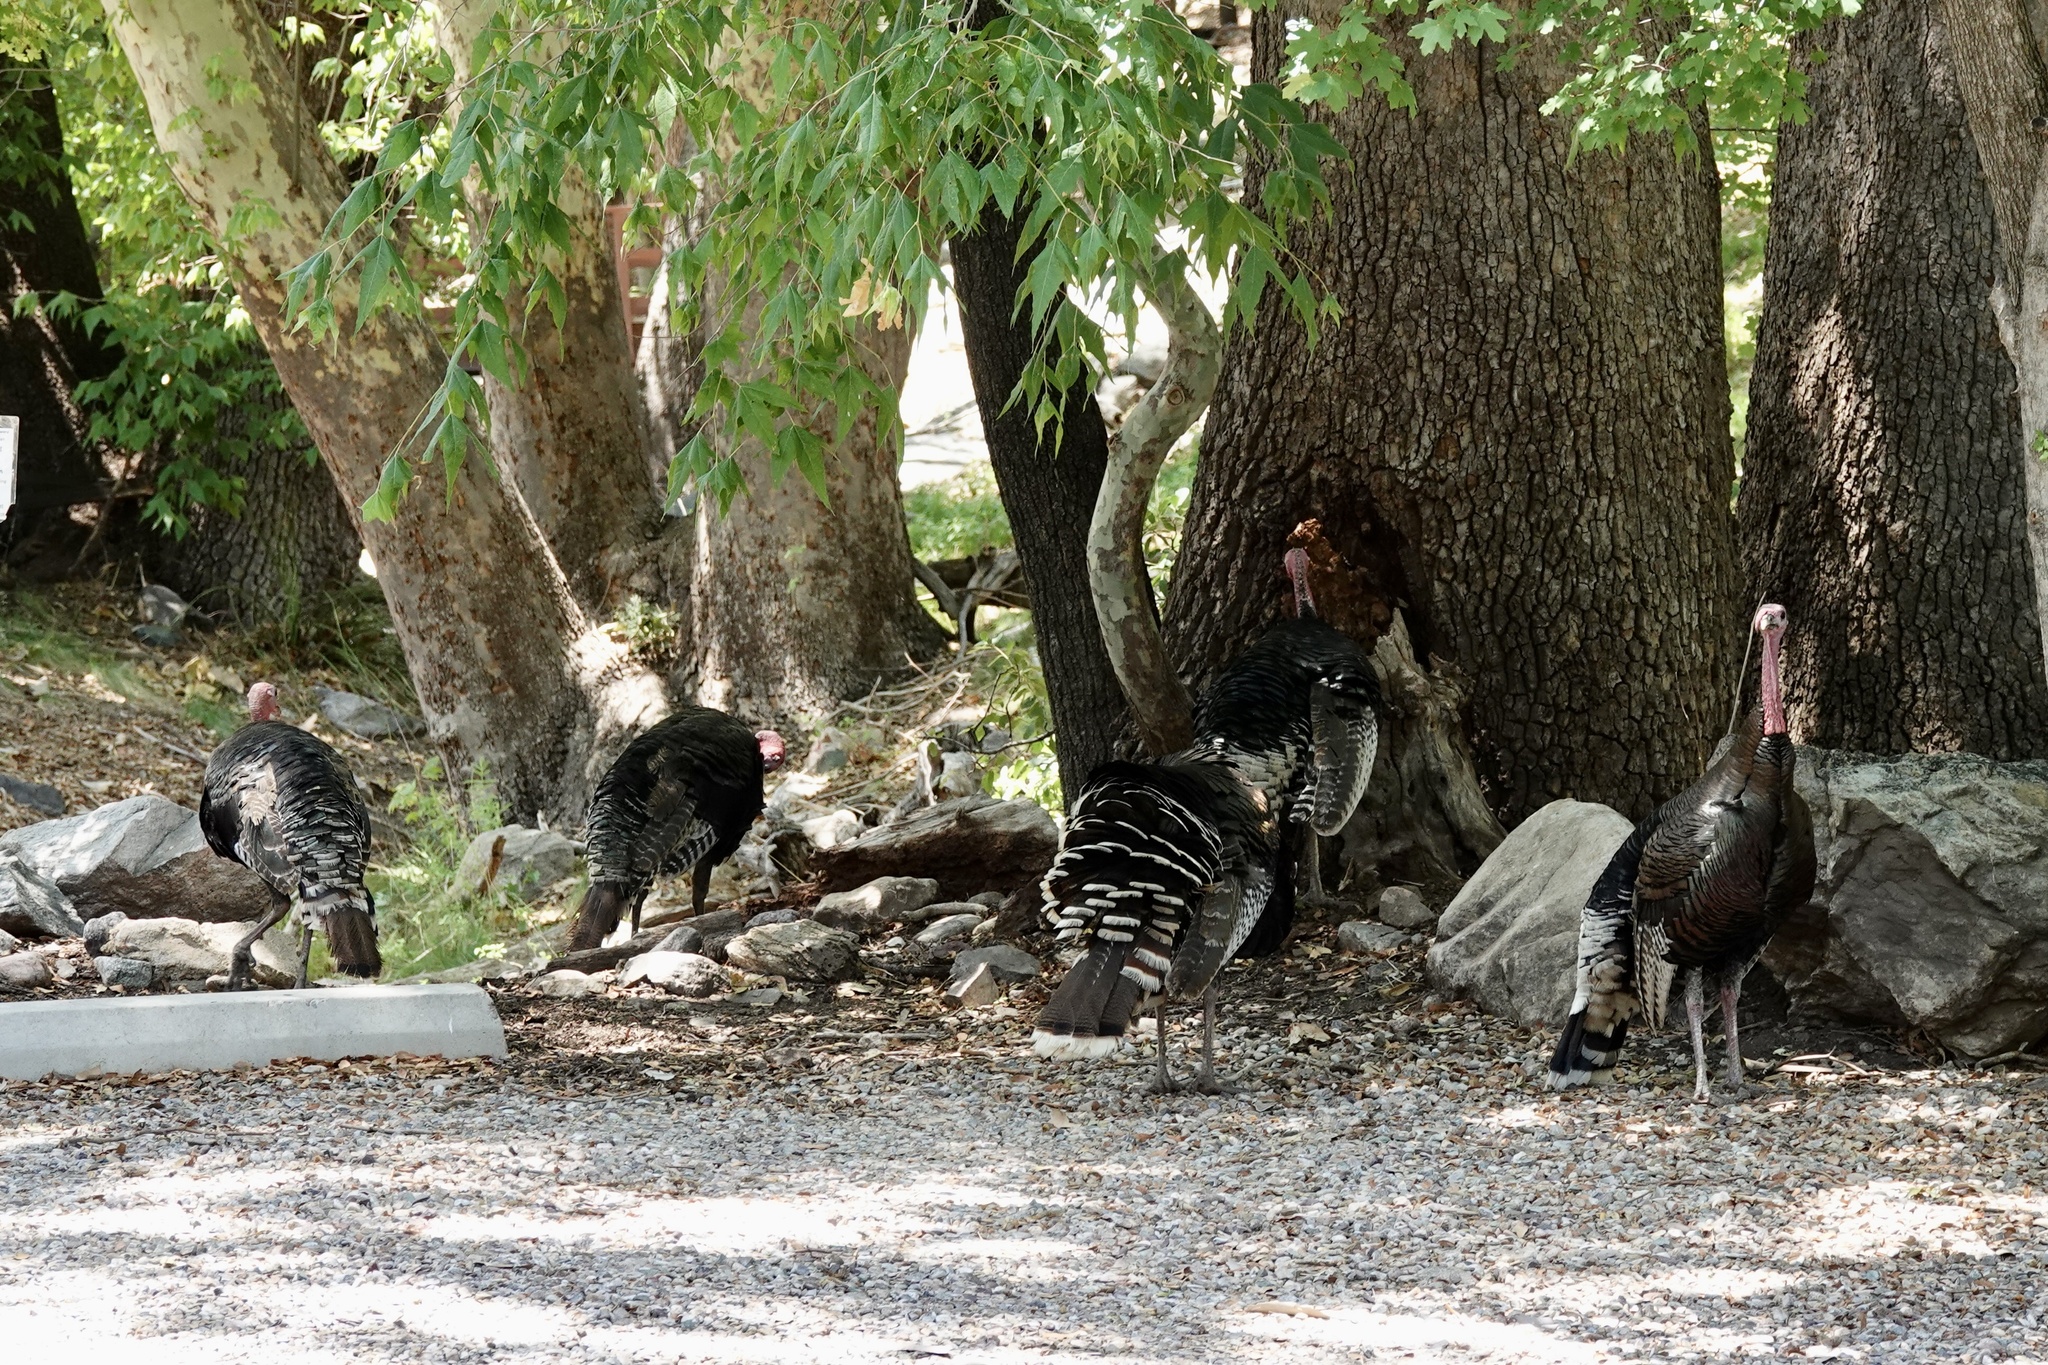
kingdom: Animalia
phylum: Chordata
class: Aves
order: Galliformes
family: Phasianidae
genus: Meleagris
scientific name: Meleagris gallopavo
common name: Wild turkey
